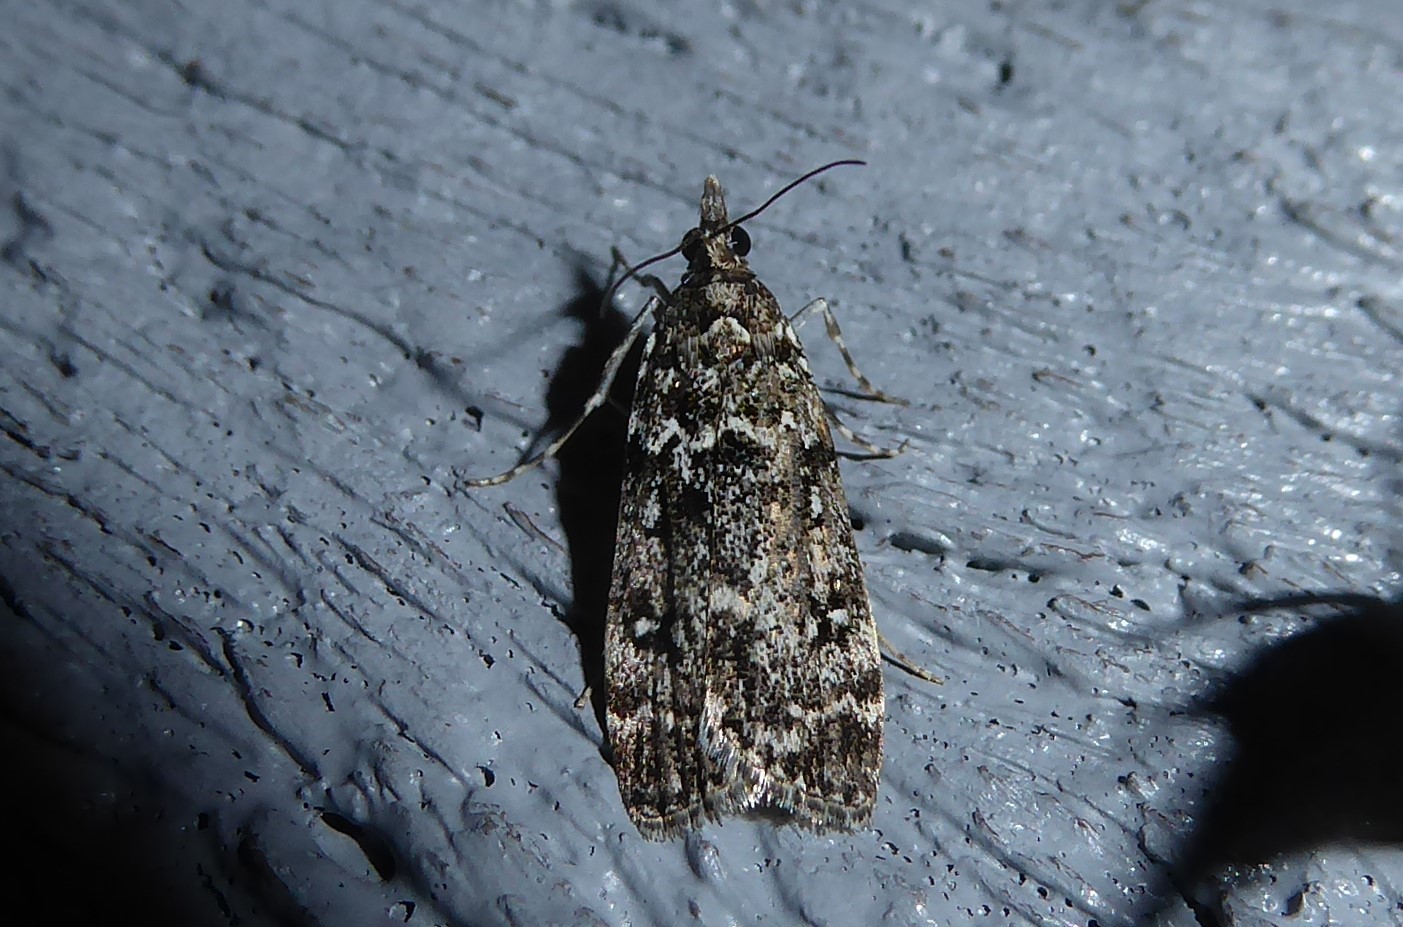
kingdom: Animalia
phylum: Arthropoda
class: Insecta
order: Lepidoptera
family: Crambidae
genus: Eudonia
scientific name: Eudonia philerga
